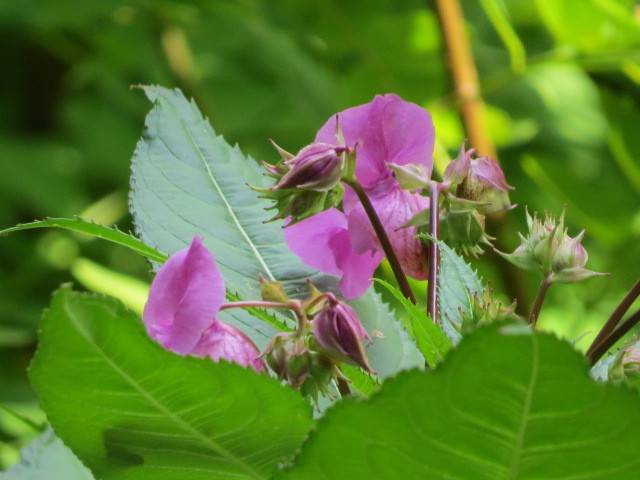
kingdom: Plantae
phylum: Tracheophyta
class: Magnoliopsida
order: Ericales
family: Balsaminaceae
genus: Impatiens
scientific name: Impatiens glandulifera
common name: Himalayan balsam
